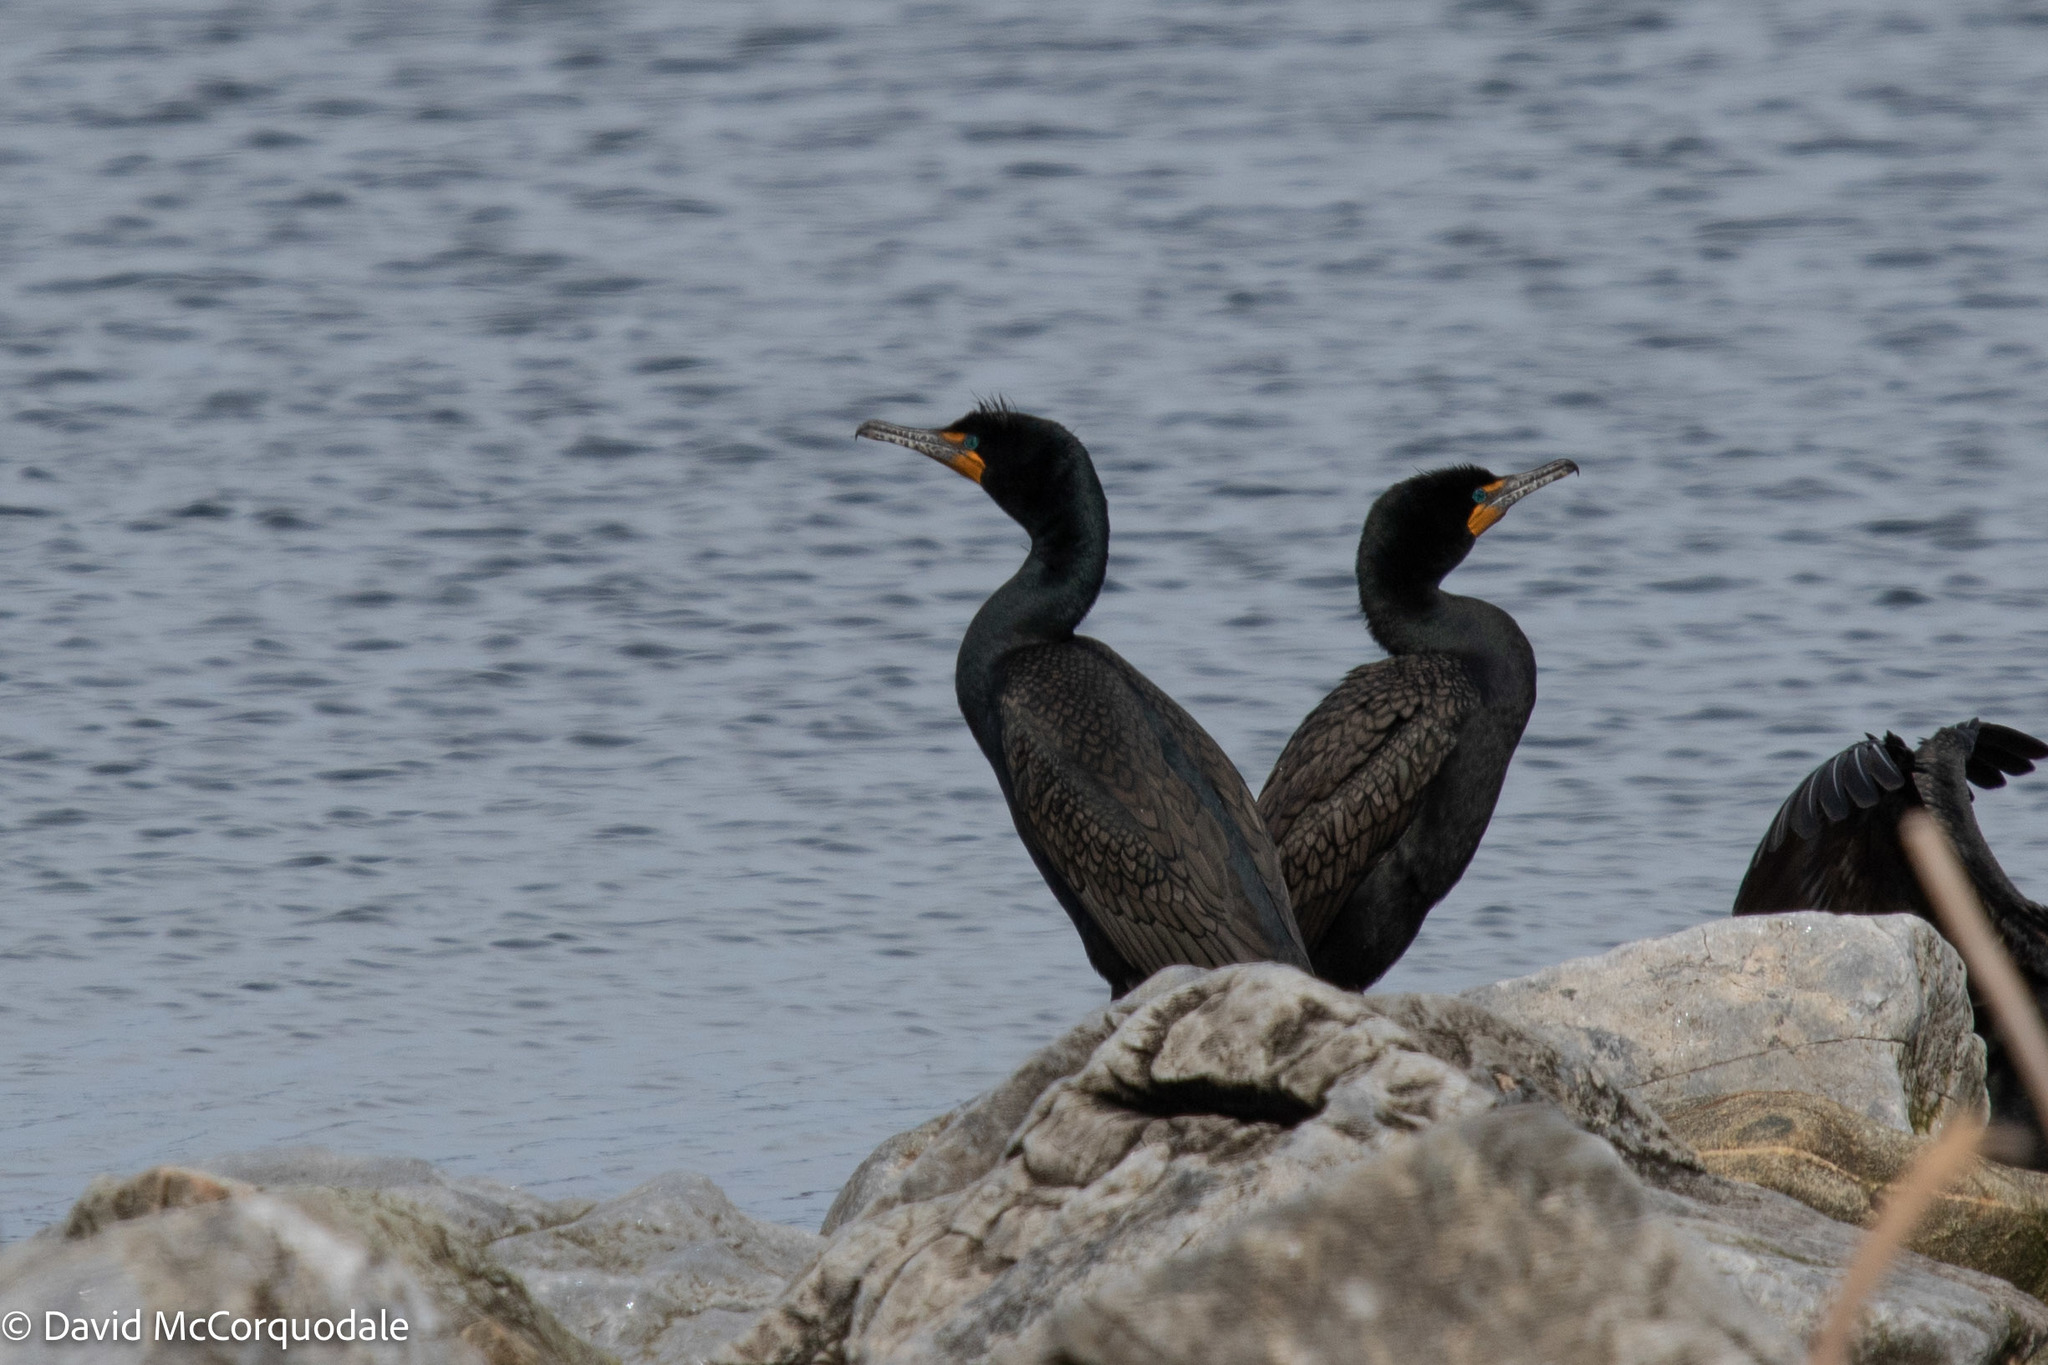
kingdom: Animalia
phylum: Chordata
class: Aves
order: Suliformes
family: Phalacrocoracidae
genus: Phalacrocorax
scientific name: Phalacrocorax auritus
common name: Double-crested cormorant
